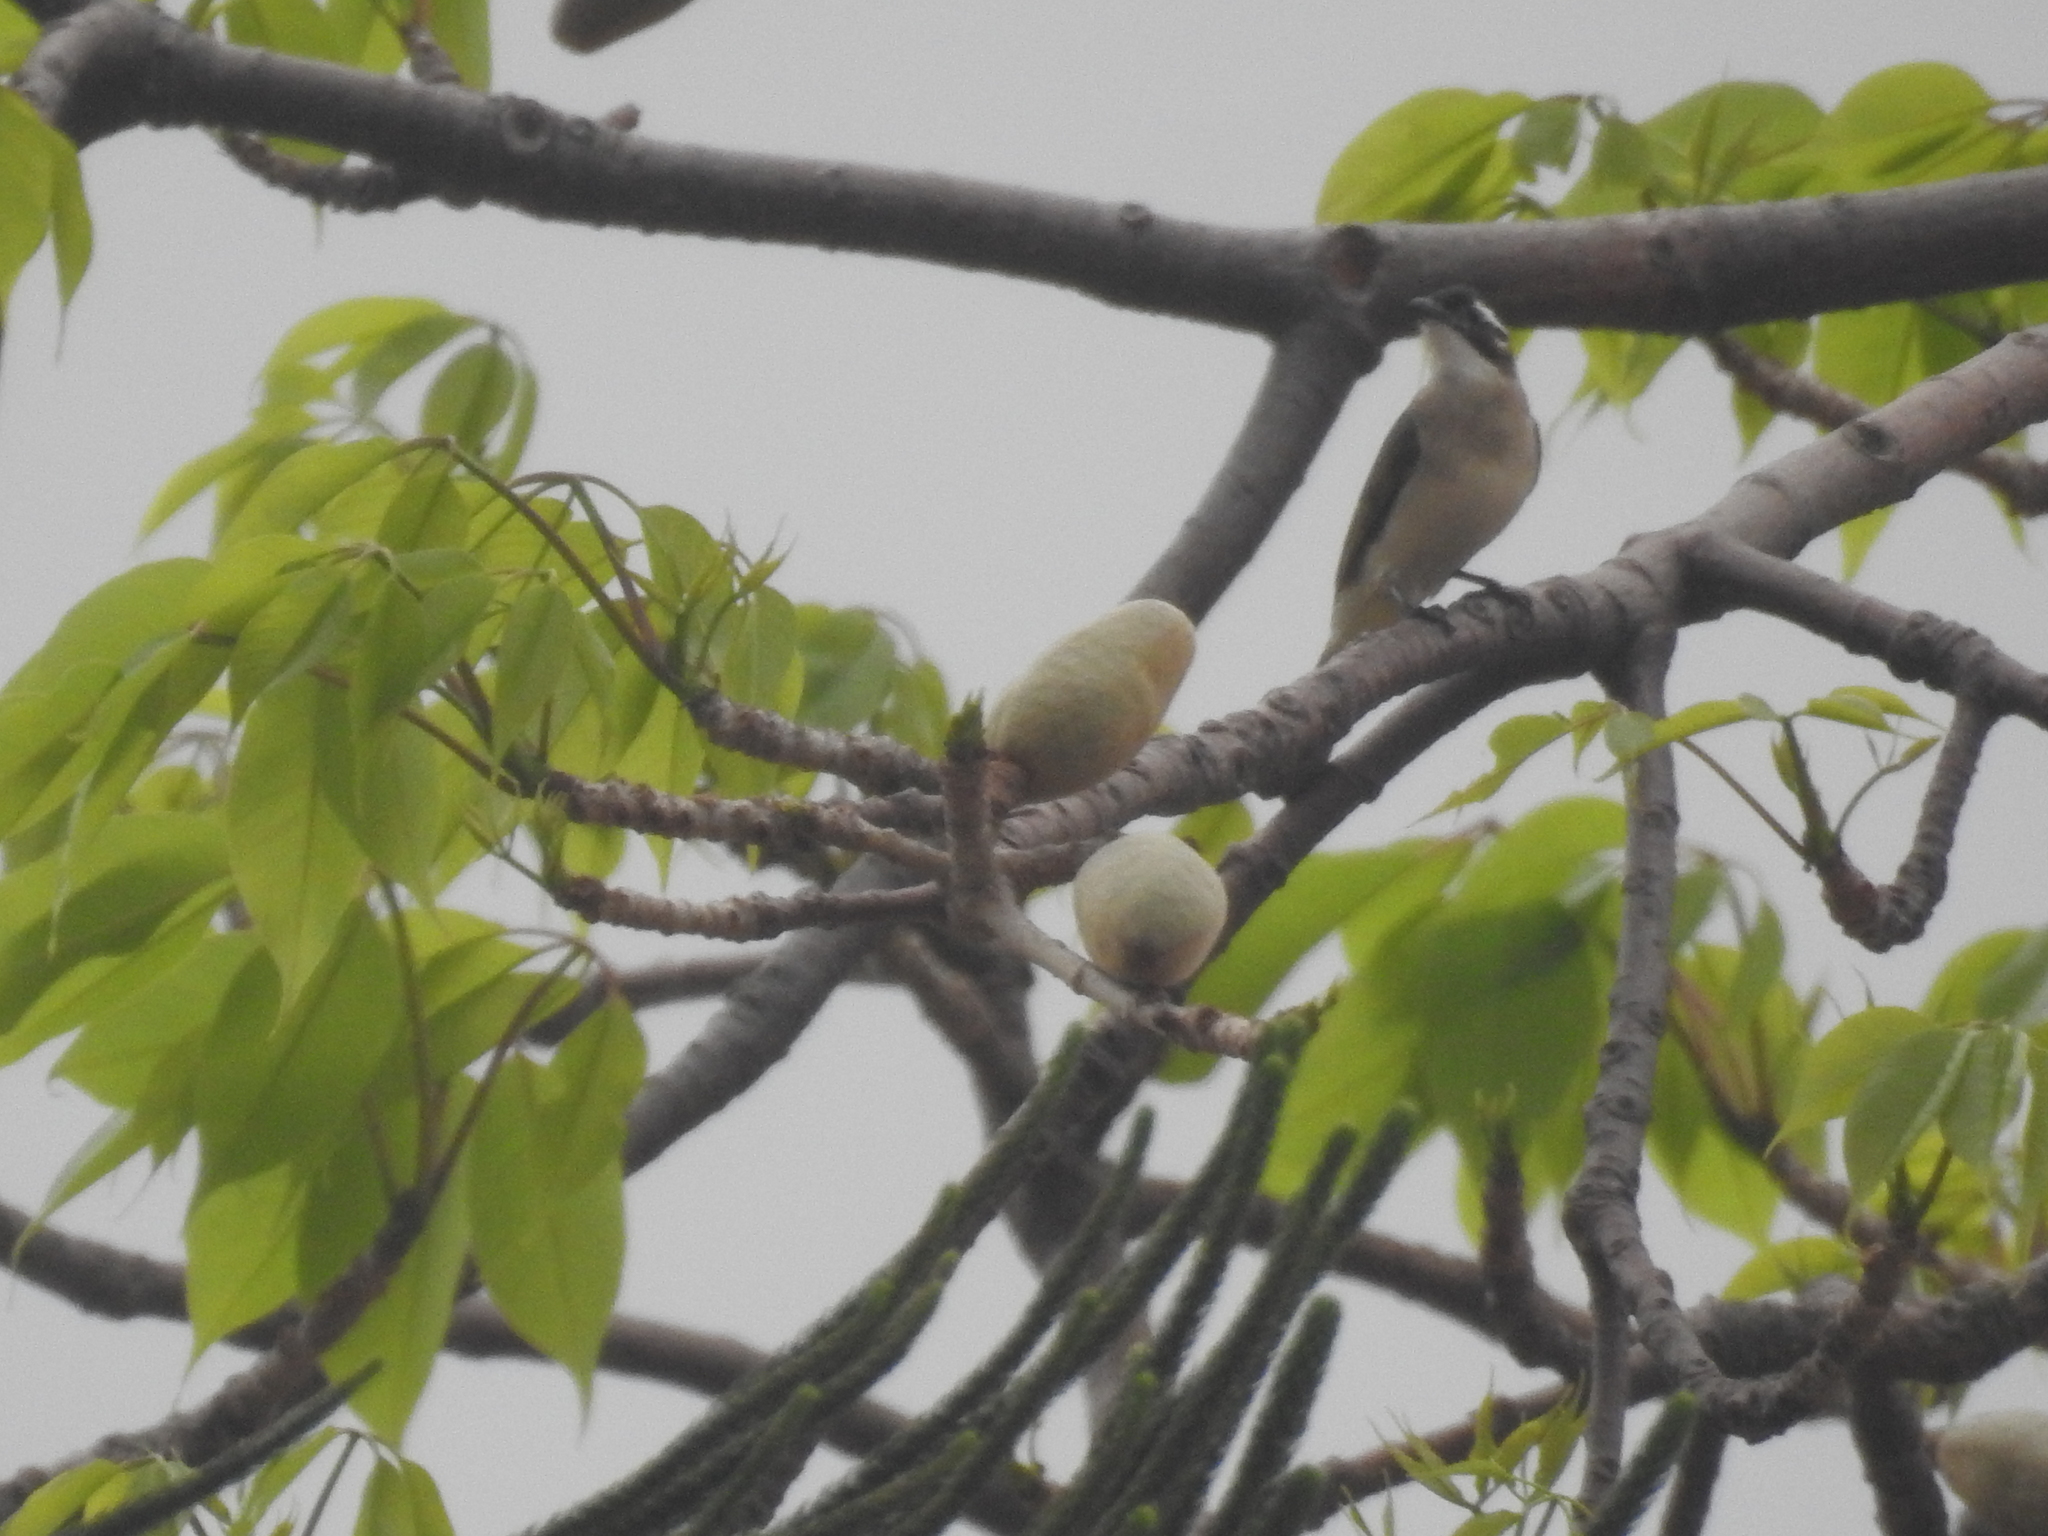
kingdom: Animalia
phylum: Chordata
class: Aves
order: Passeriformes
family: Pycnonotidae
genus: Pycnonotus
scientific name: Pycnonotus sinensis
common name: Light-vented bulbul
